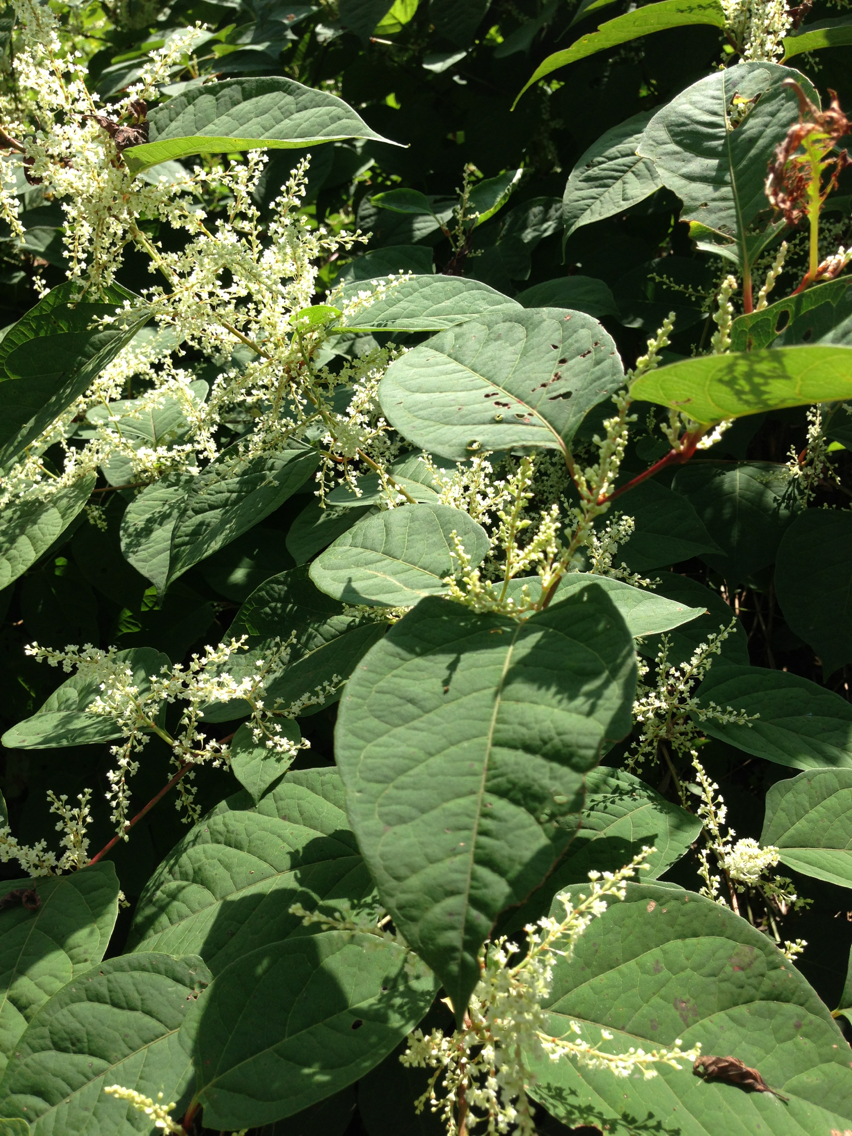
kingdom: Plantae
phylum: Tracheophyta
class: Magnoliopsida
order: Caryophyllales
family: Polygonaceae
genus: Reynoutria
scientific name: Reynoutria japonica
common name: Japanese knotweed
